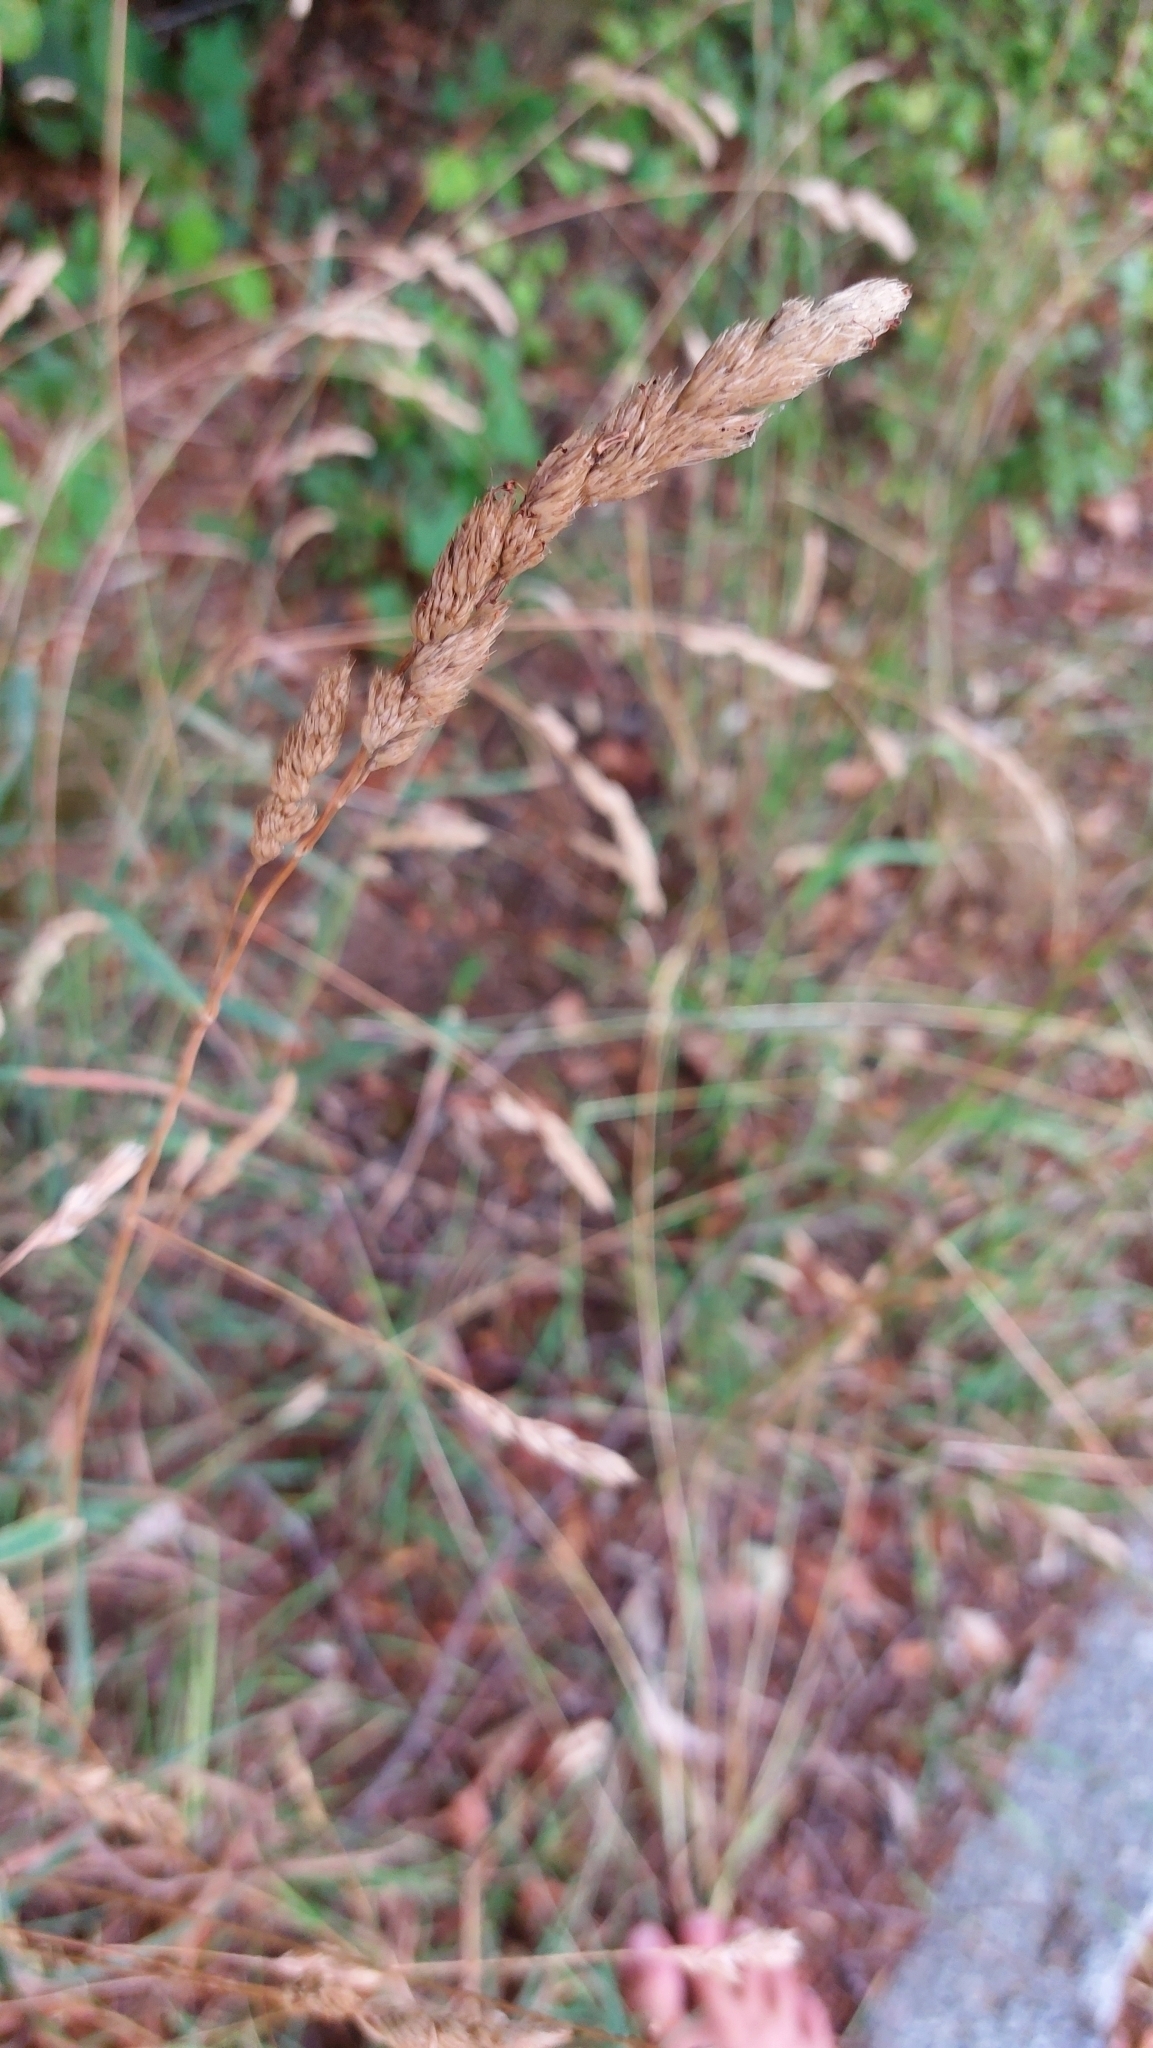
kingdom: Plantae
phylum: Tracheophyta
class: Liliopsida
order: Poales
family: Poaceae
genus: Dactylis
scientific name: Dactylis glomerata
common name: Orchardgrass
